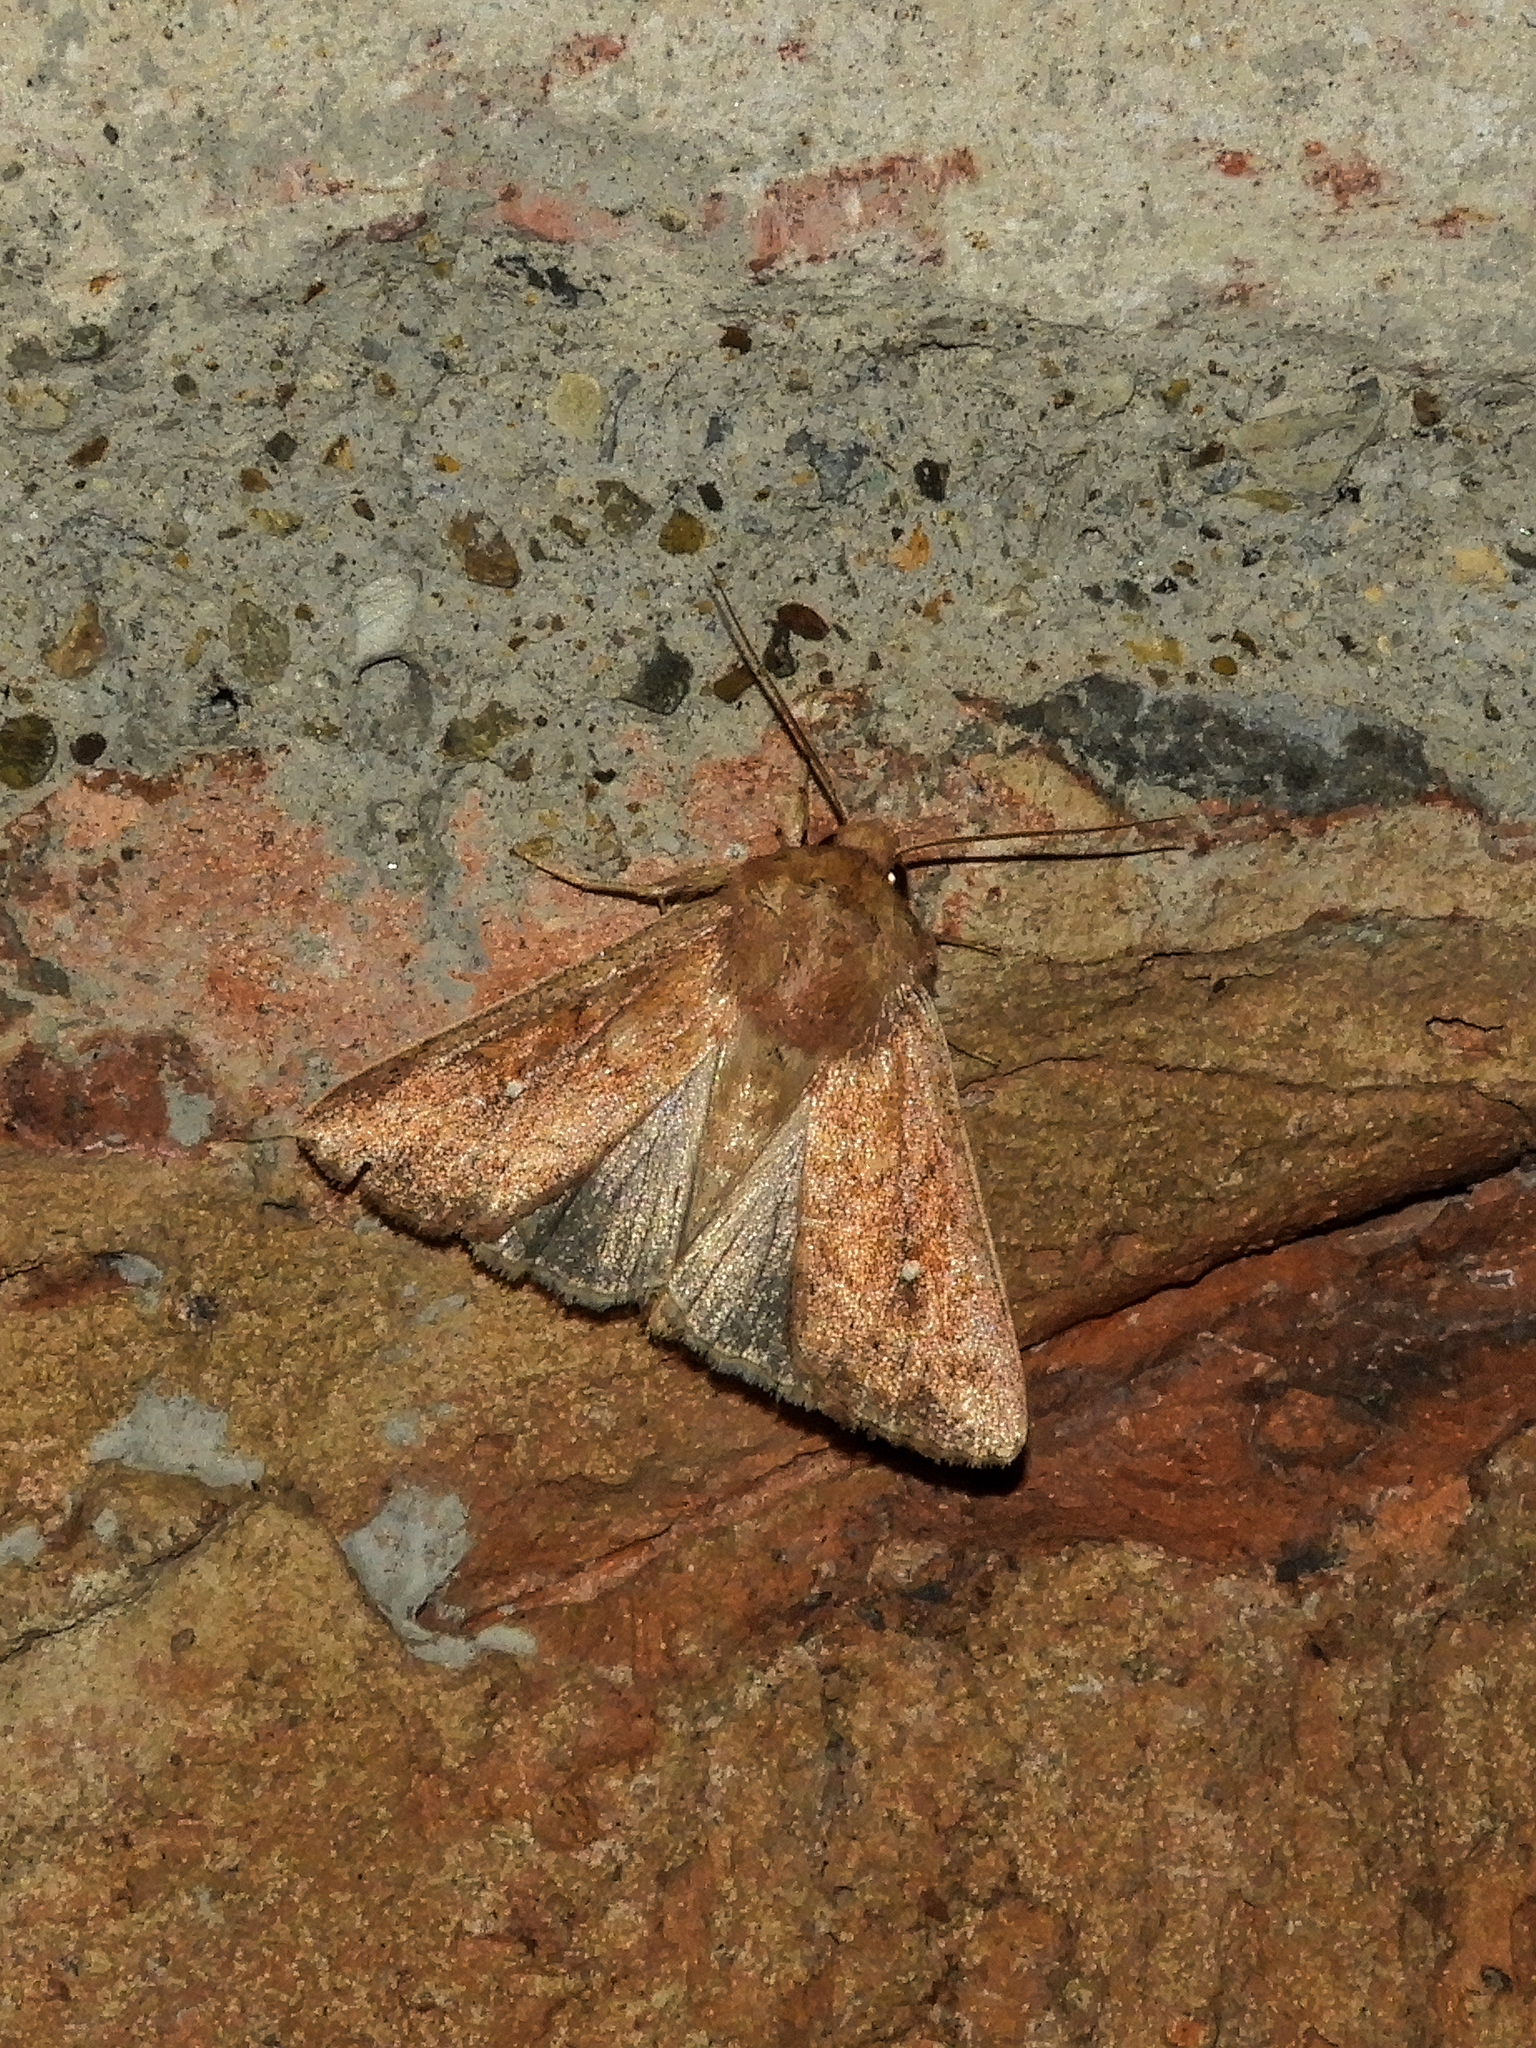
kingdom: Animalia
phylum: Arthropoda
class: Insecta
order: Lepidoptera
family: Noctuidae
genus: Mythimna
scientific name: Mythimna albipuncta
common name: White-point
